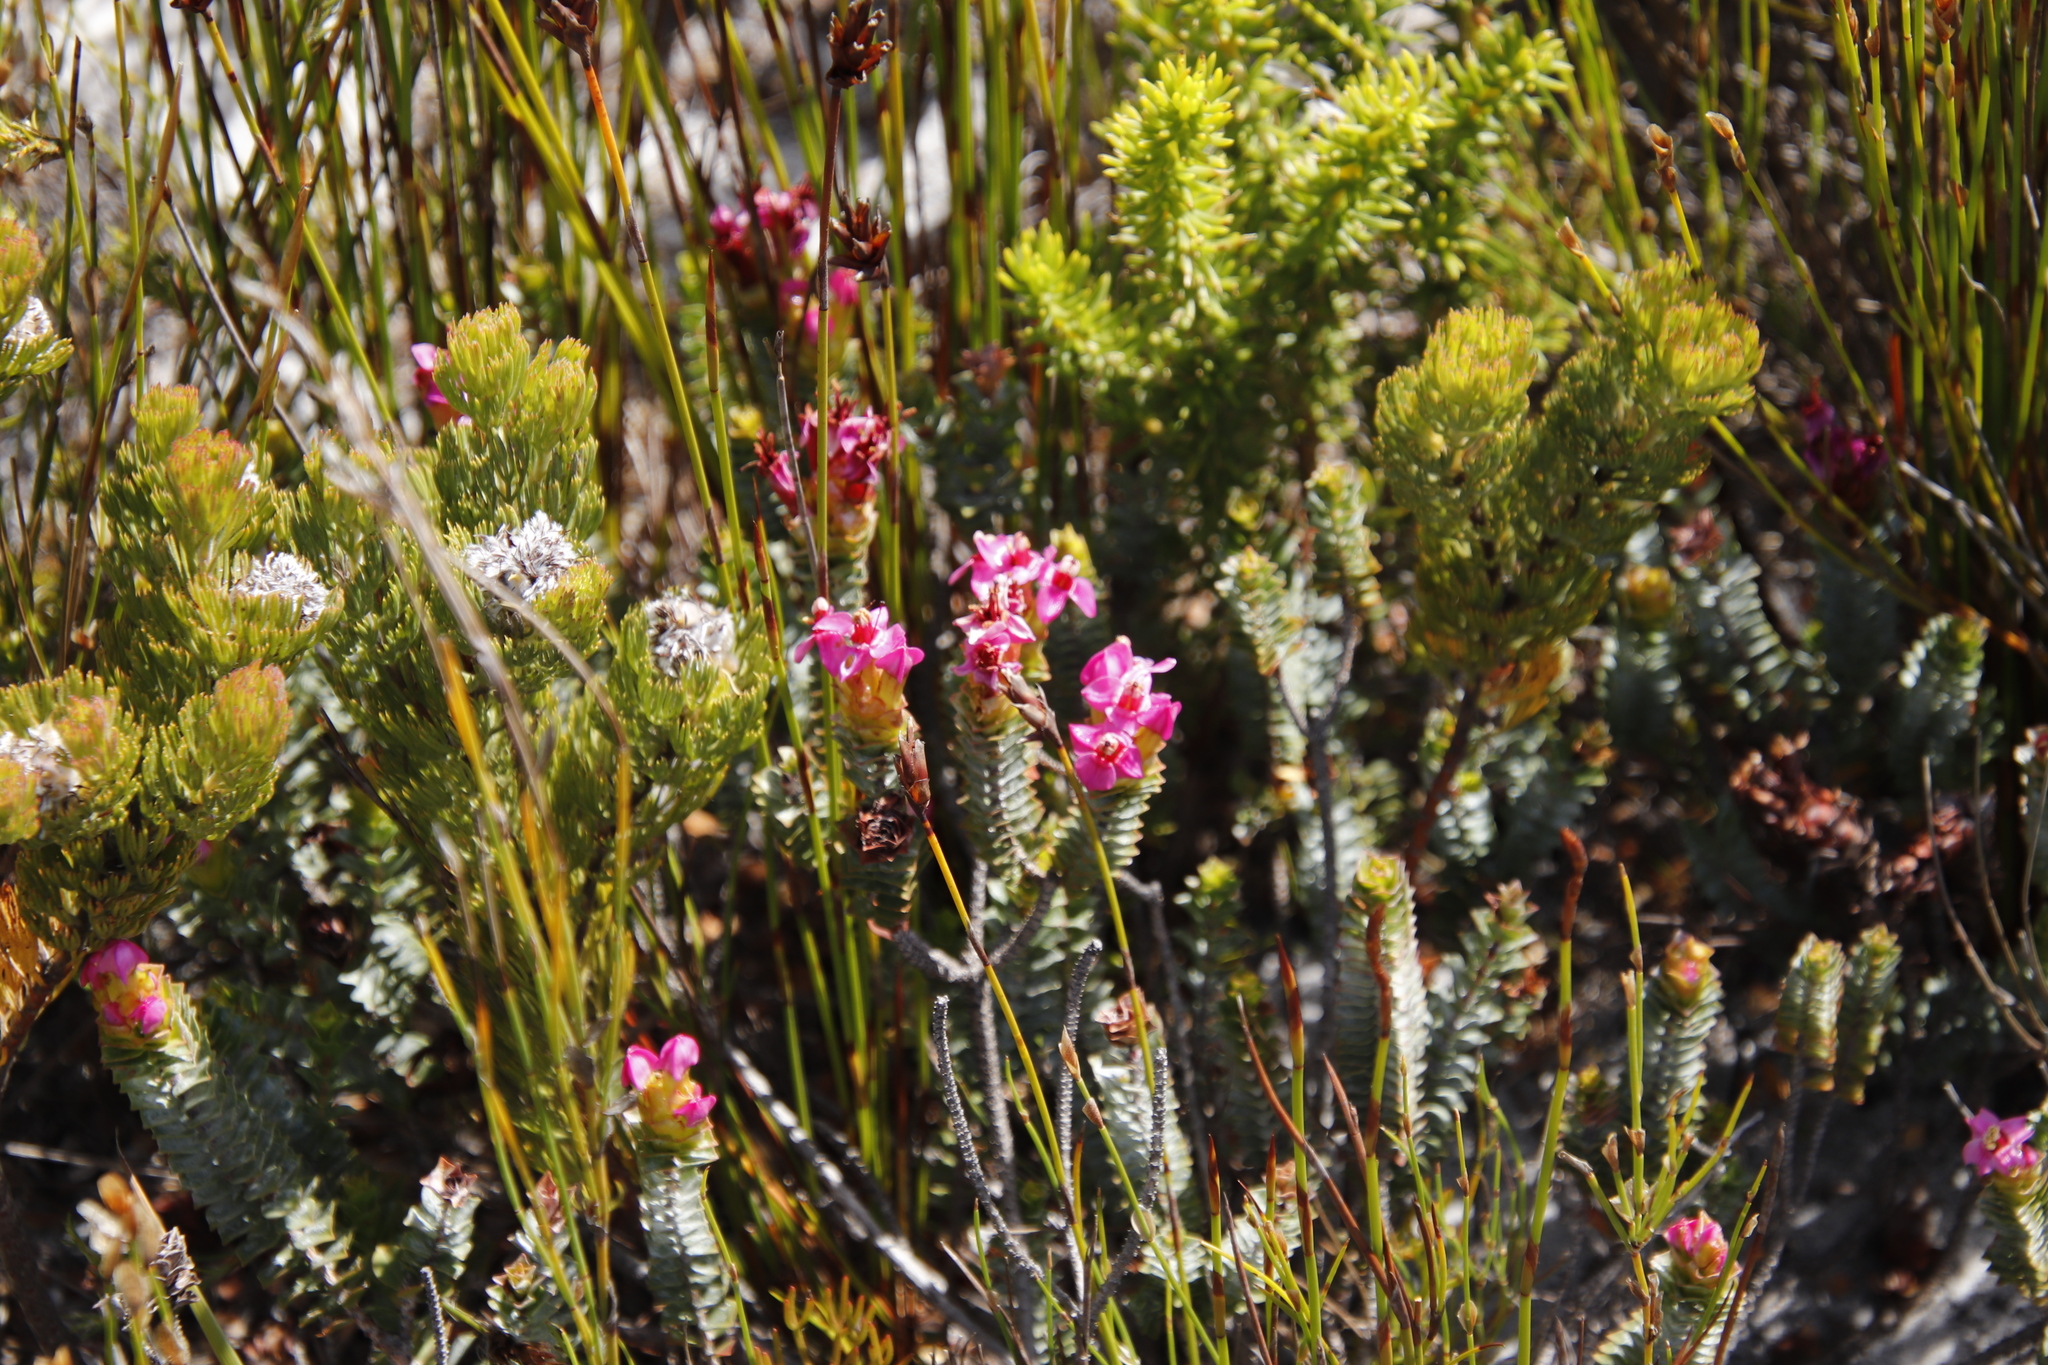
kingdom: Plantae
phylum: Tracheophyta
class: Magnoliopsida
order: Myrtales
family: Penaeaceae
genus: Saltera
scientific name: Saltera sarcocolla
